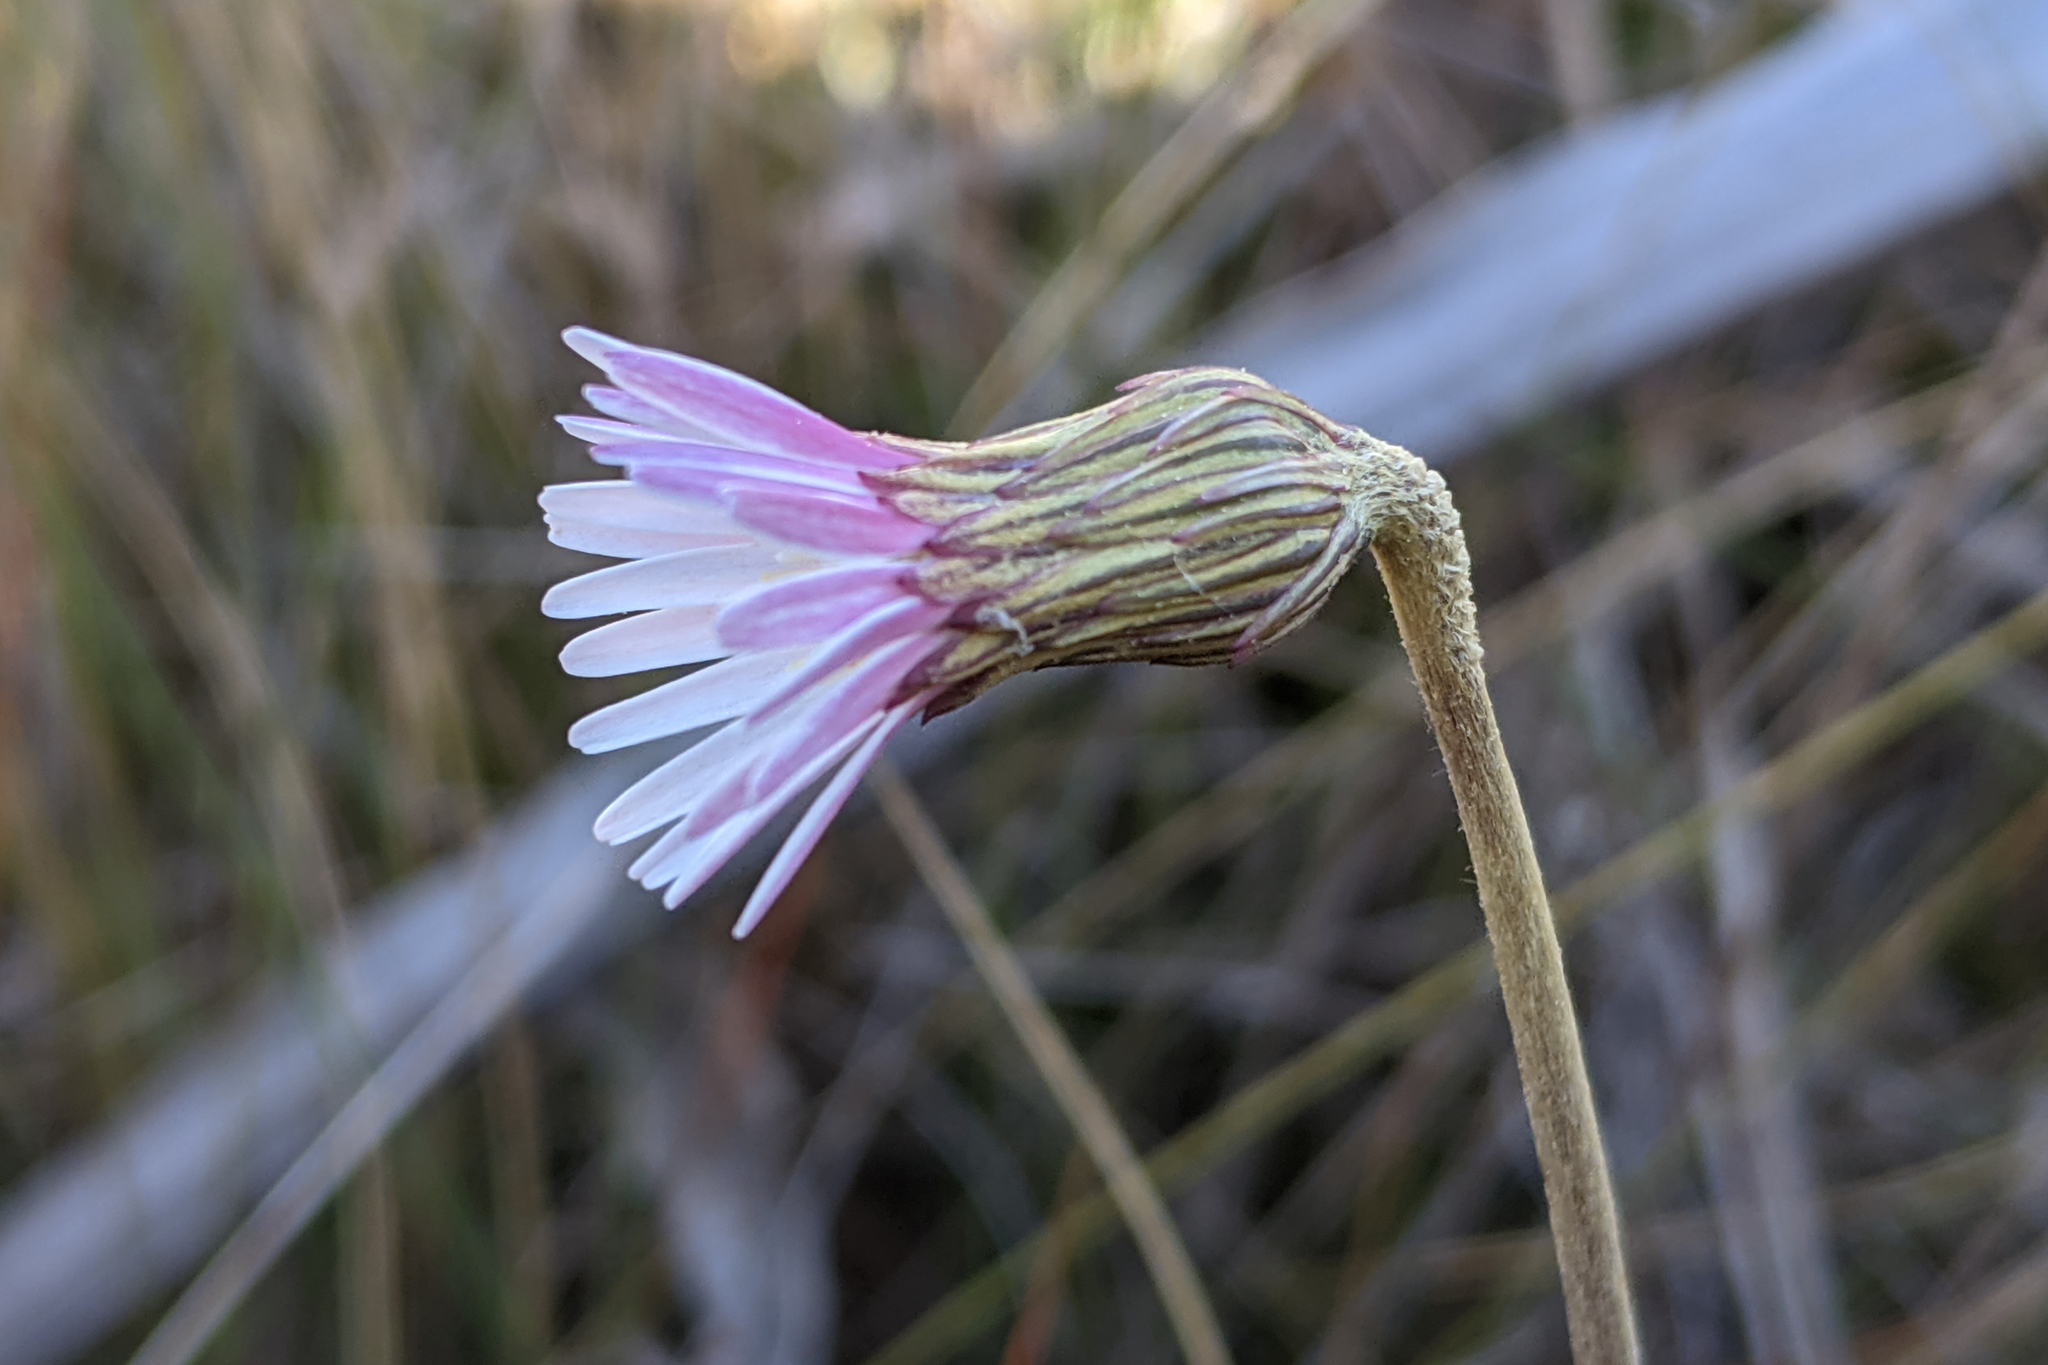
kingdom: Plantae
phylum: Tracheophyta
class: Magnoliopsida
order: Asterales
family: Asteraceae
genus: Chaptalia
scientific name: Chaptalia tomentosa
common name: Woolly sunbonnet
